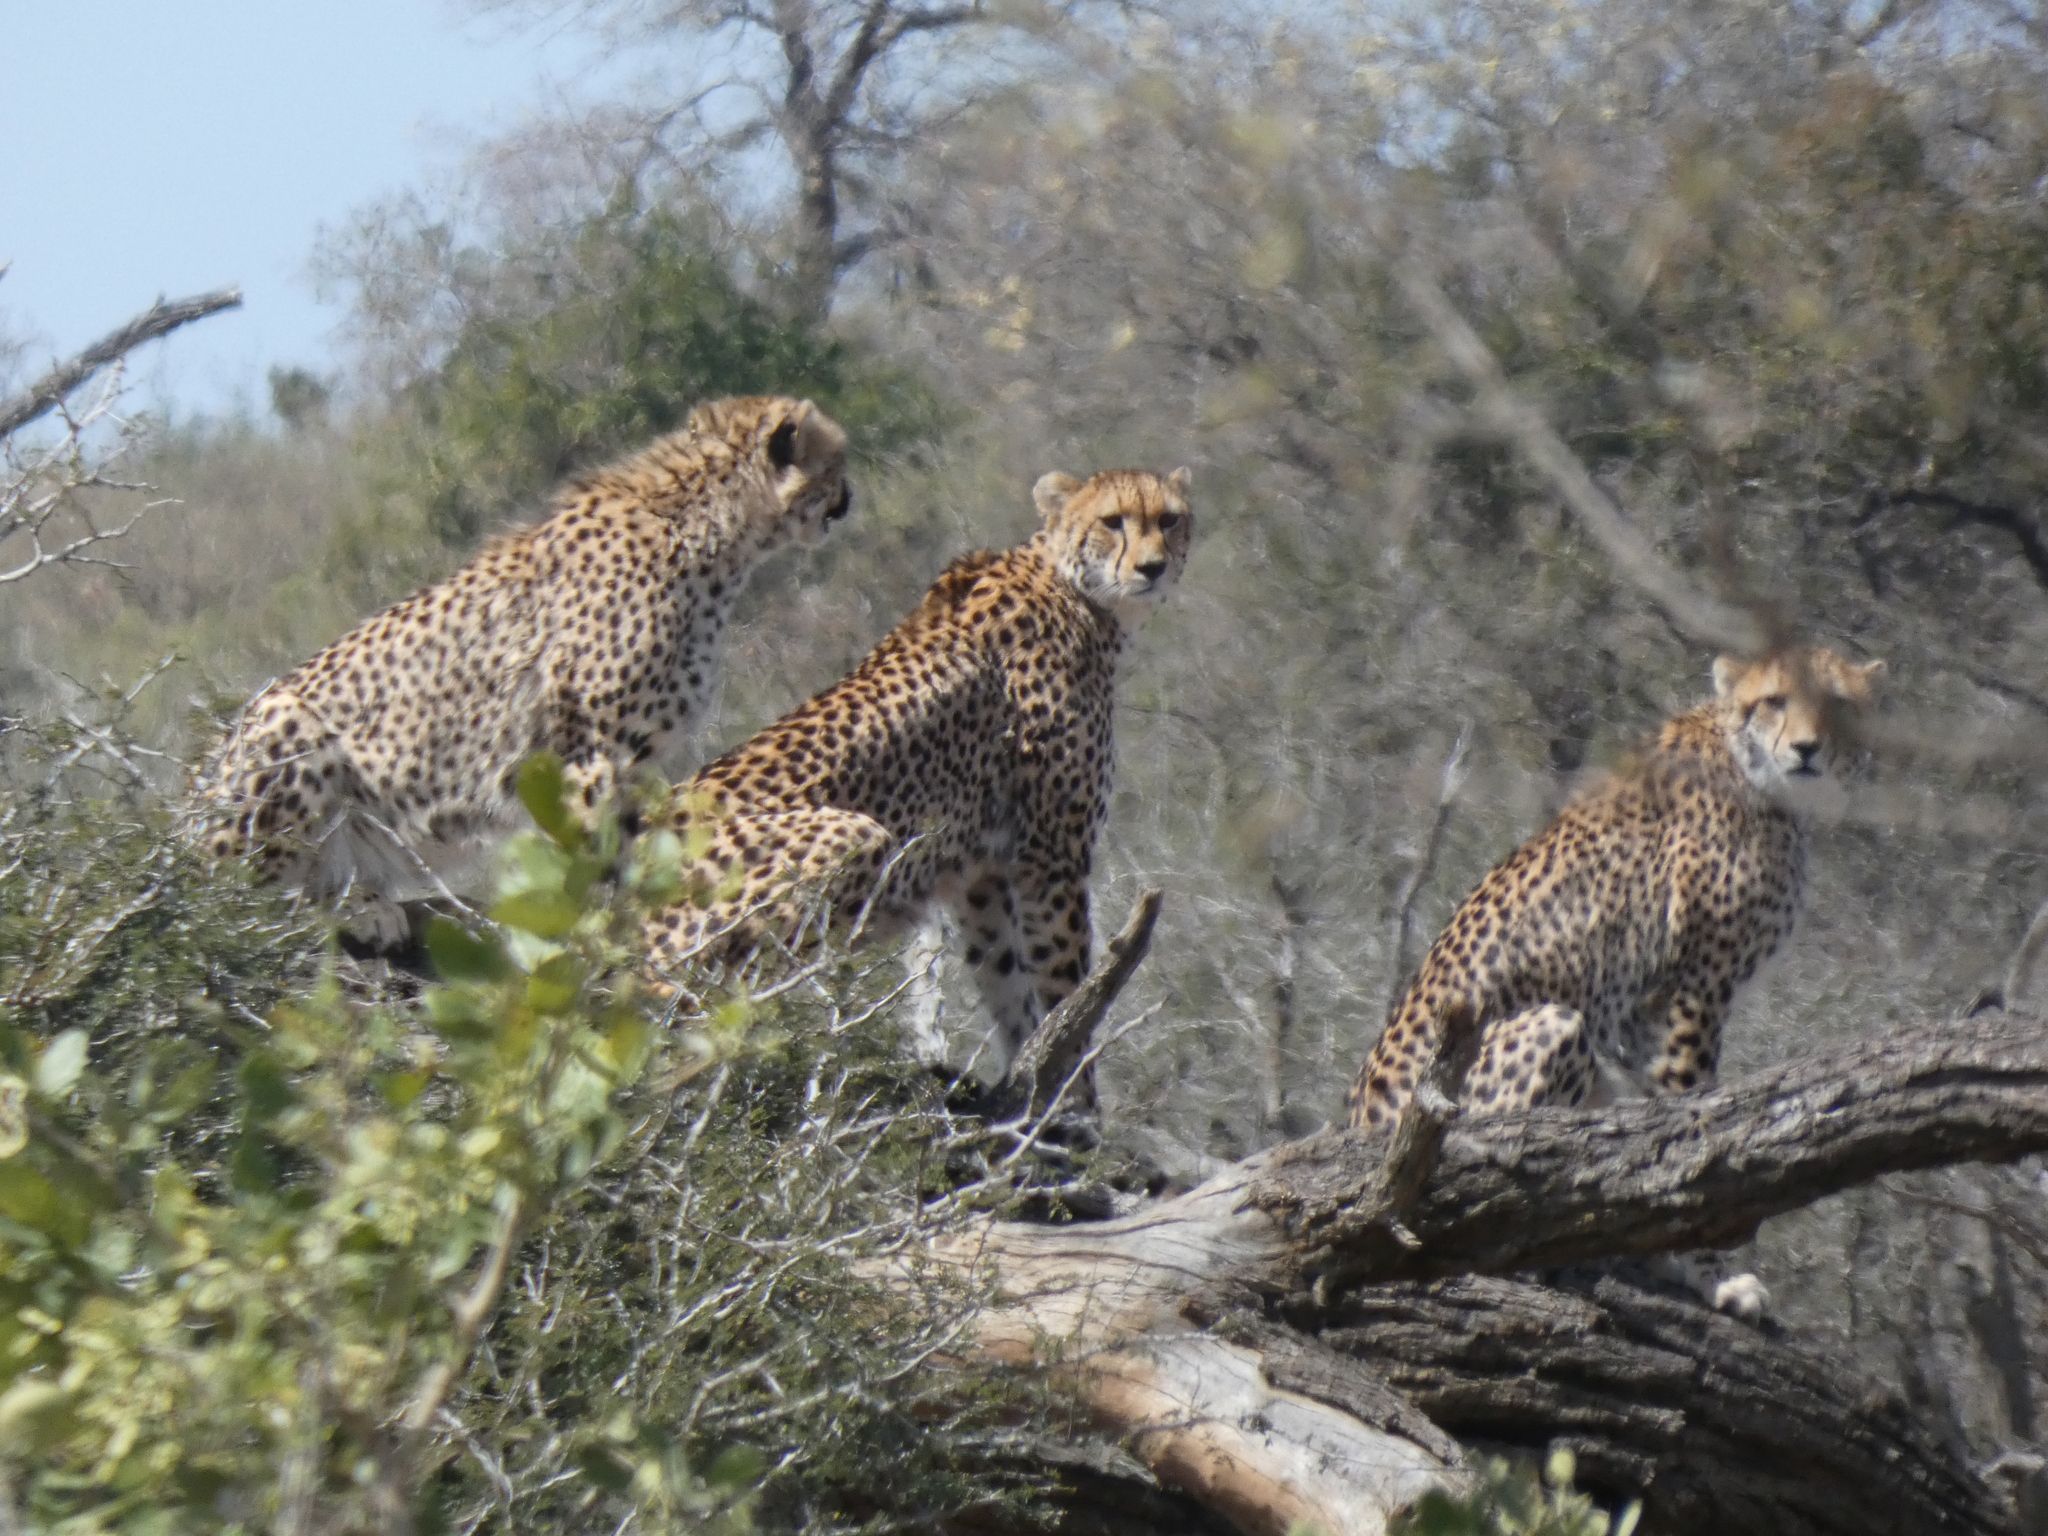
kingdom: Animalia
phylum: Chordata
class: Mammalia
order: Carnivora
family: Felidae
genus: Acinonyx
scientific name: Acinonyx jubatus
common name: Cheetah
